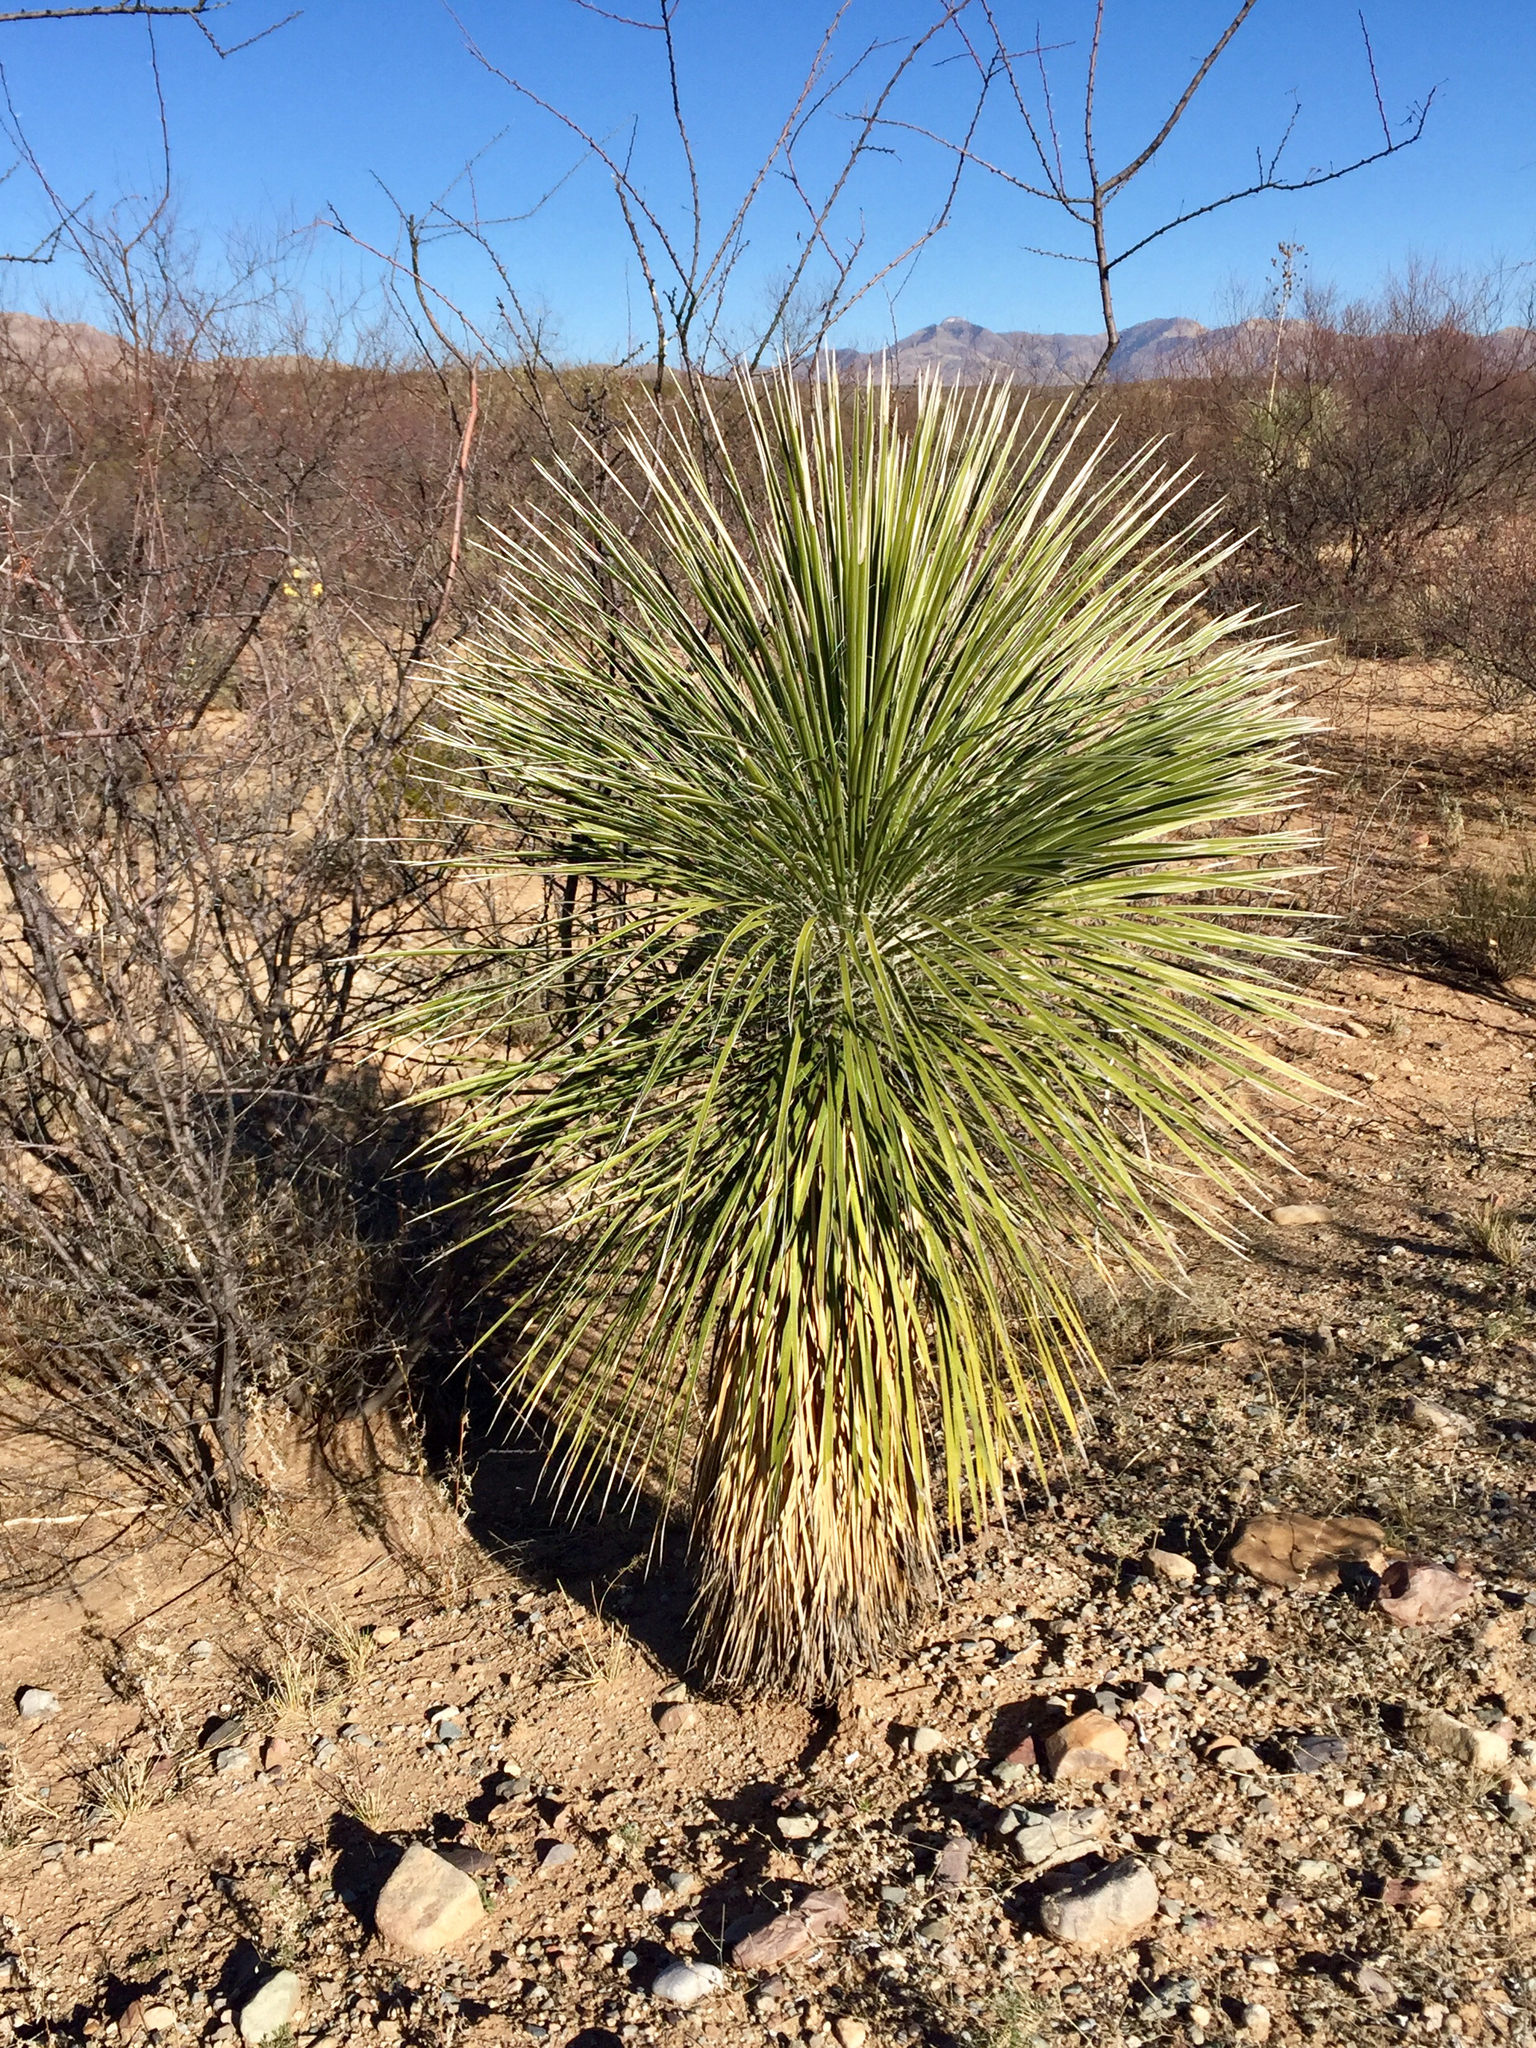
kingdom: Plantae
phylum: Tracheophyta
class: Liliopsida
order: Asparagales
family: Asparagaceae
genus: Yucca
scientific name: Yucca elata
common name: Palmella
